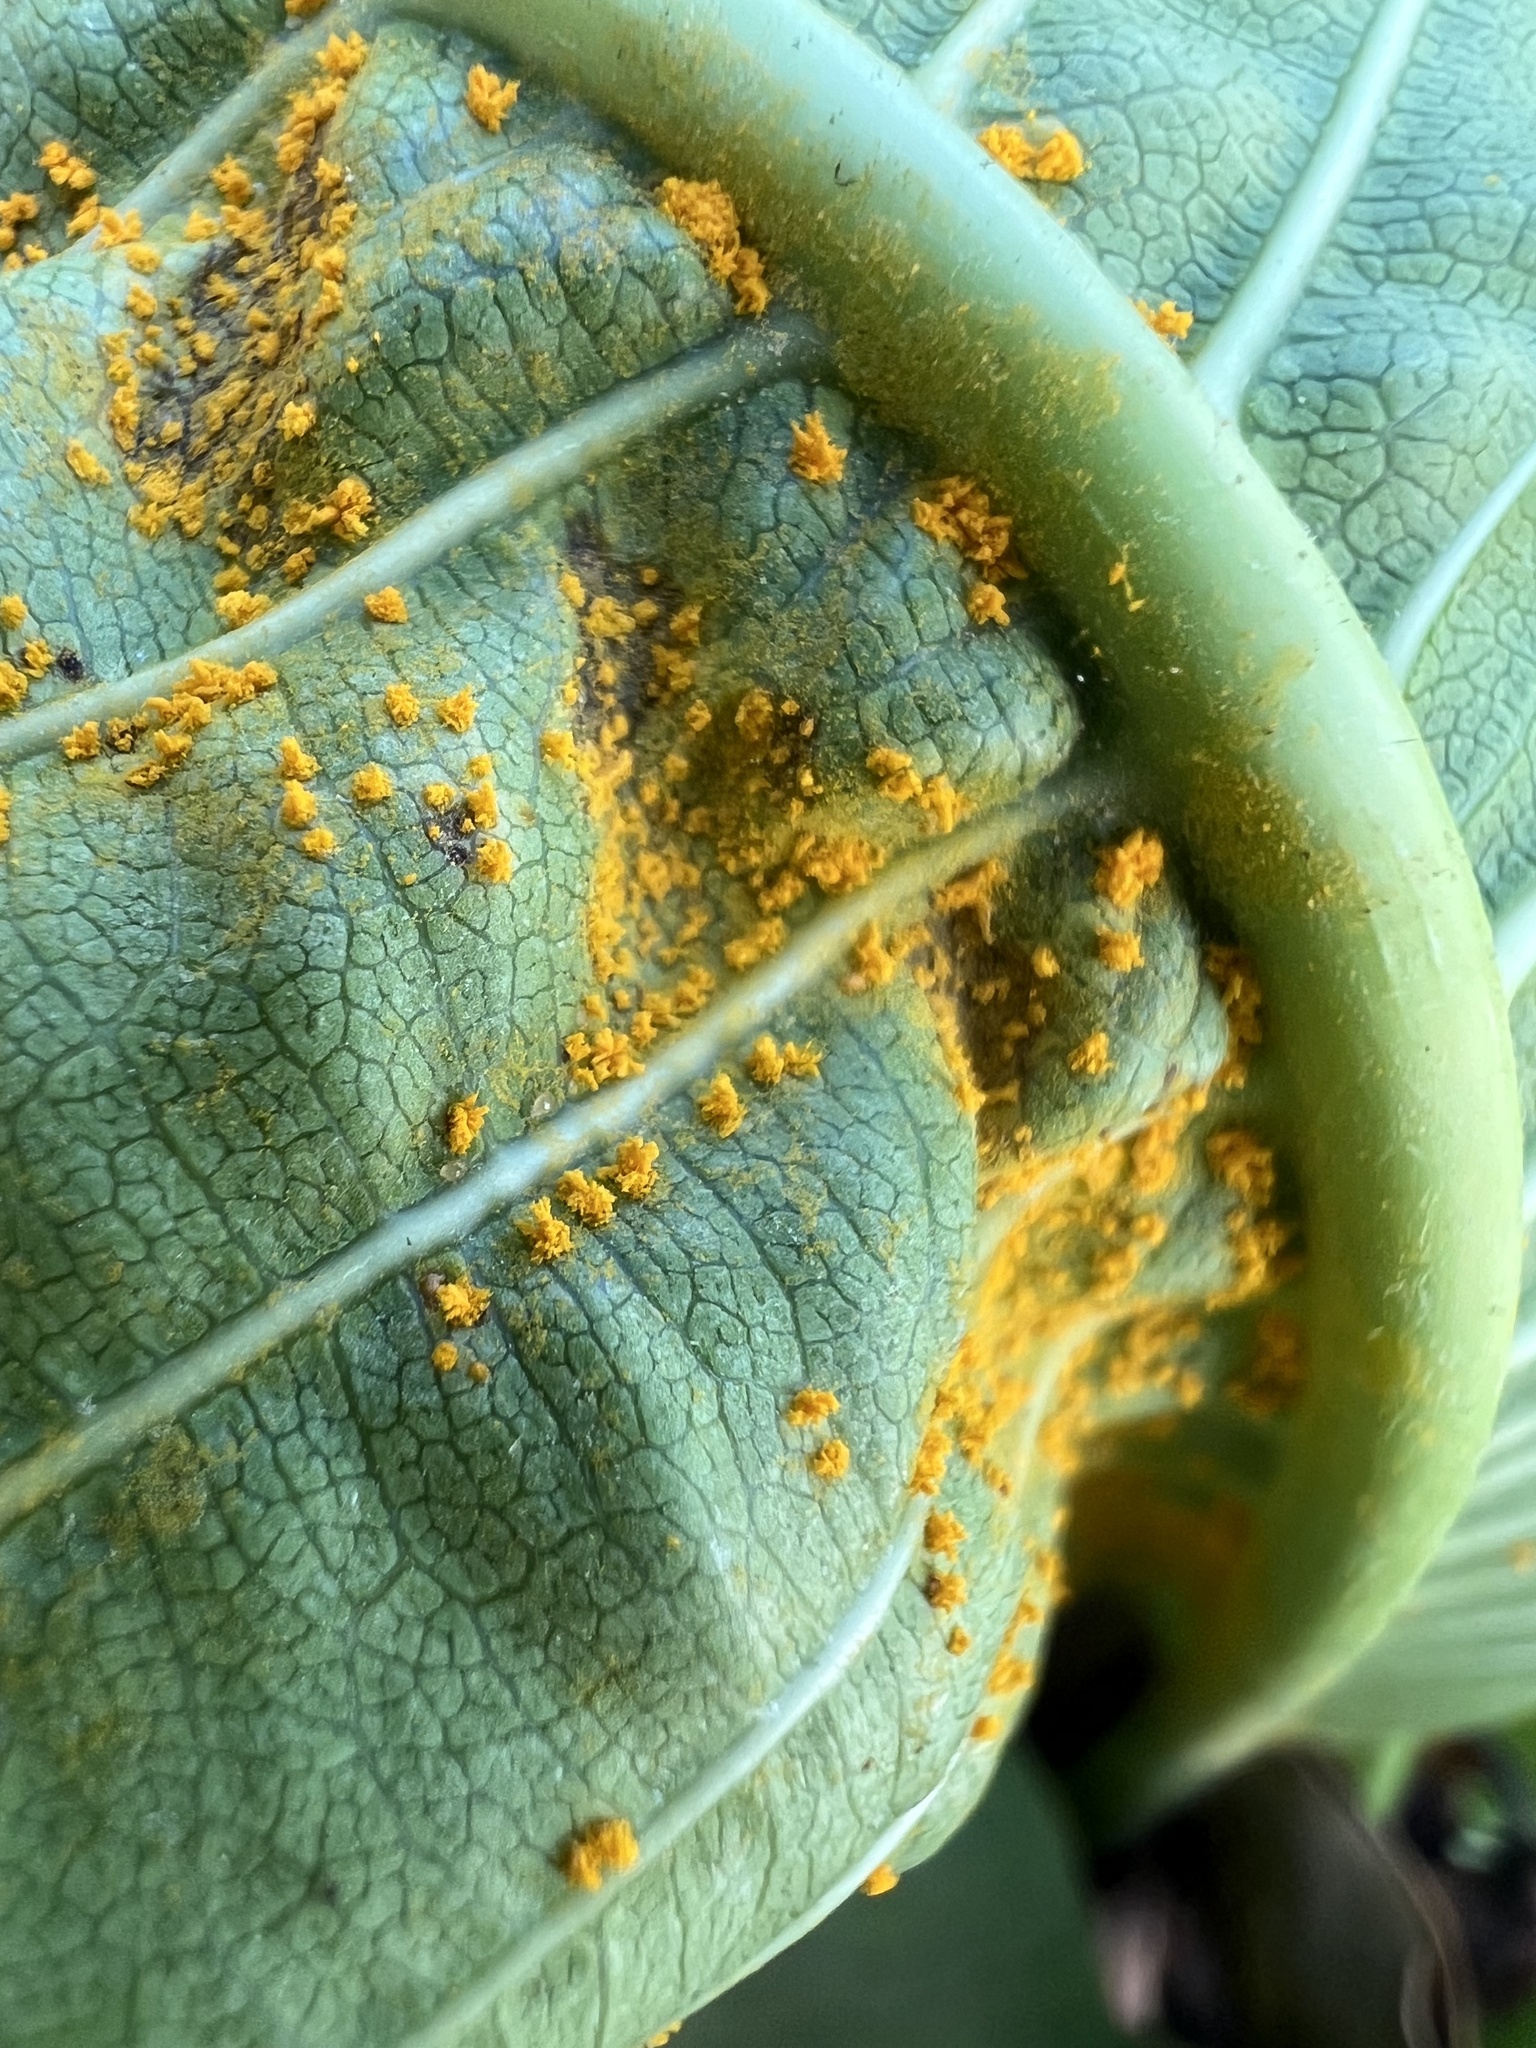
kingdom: Fungi
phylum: Basidiomycota
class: Pucciniomycetes
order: Pucciniales
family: Coleosporiaceae
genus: Coleosporium
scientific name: Coleosporium plumeriae
